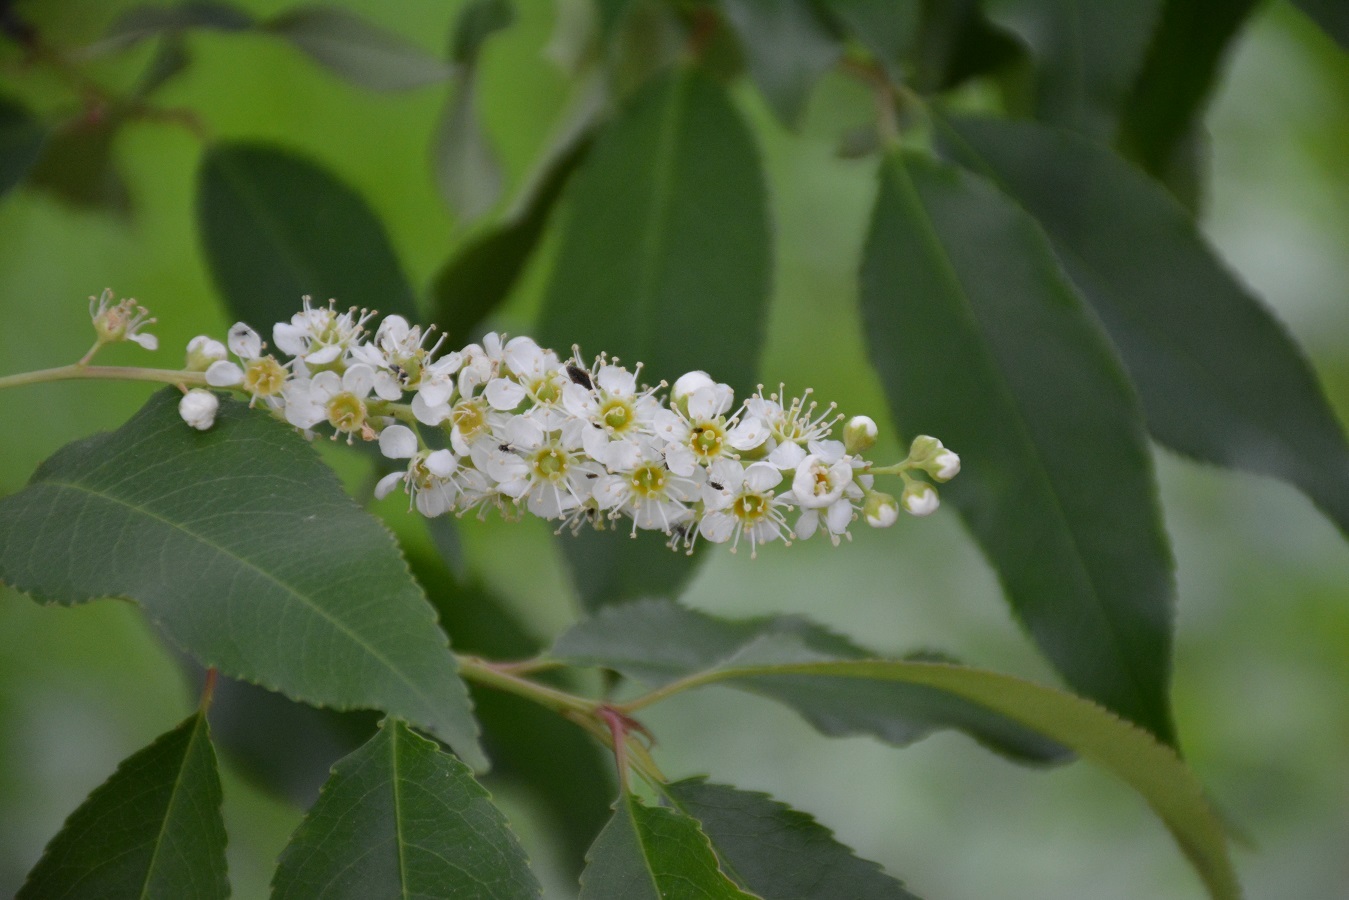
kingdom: Plantae
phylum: Tracheophyta
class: Magnoliopsida
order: Rosales
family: Rosaceae
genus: Prunus
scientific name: Prunus serotina
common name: Black cherry
